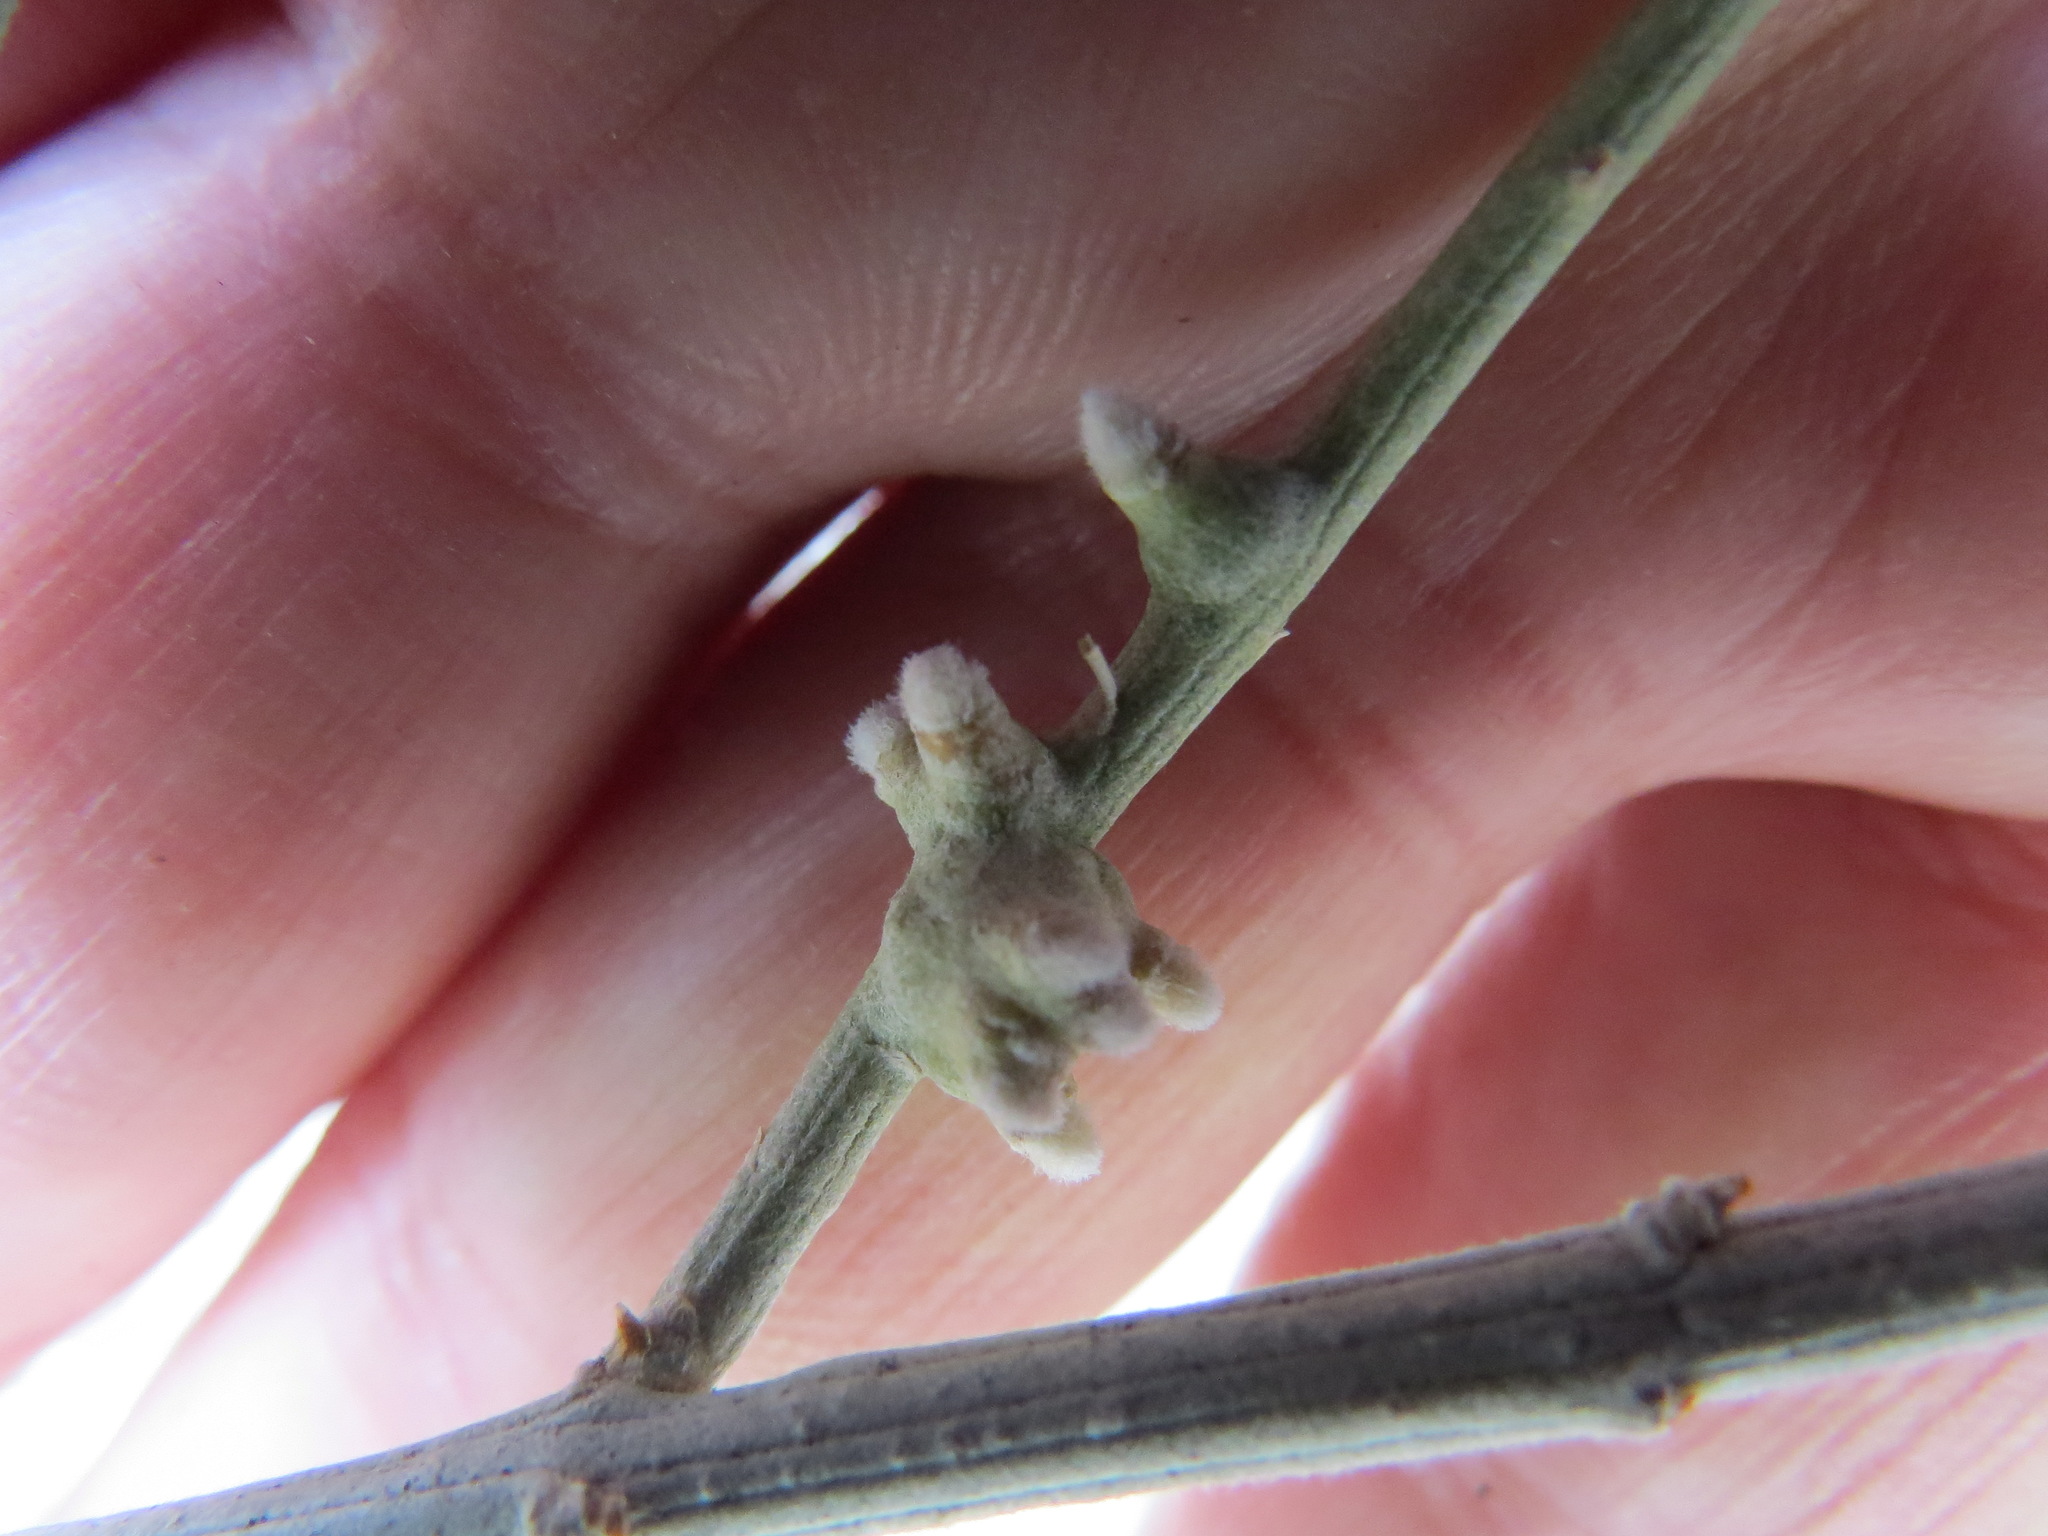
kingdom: Animalia
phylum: Arthropoda
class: Insecta
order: Diptera
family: Cecidomyiidae
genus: Rhopalomyia
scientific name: Rhopalomyia chrysothamni
